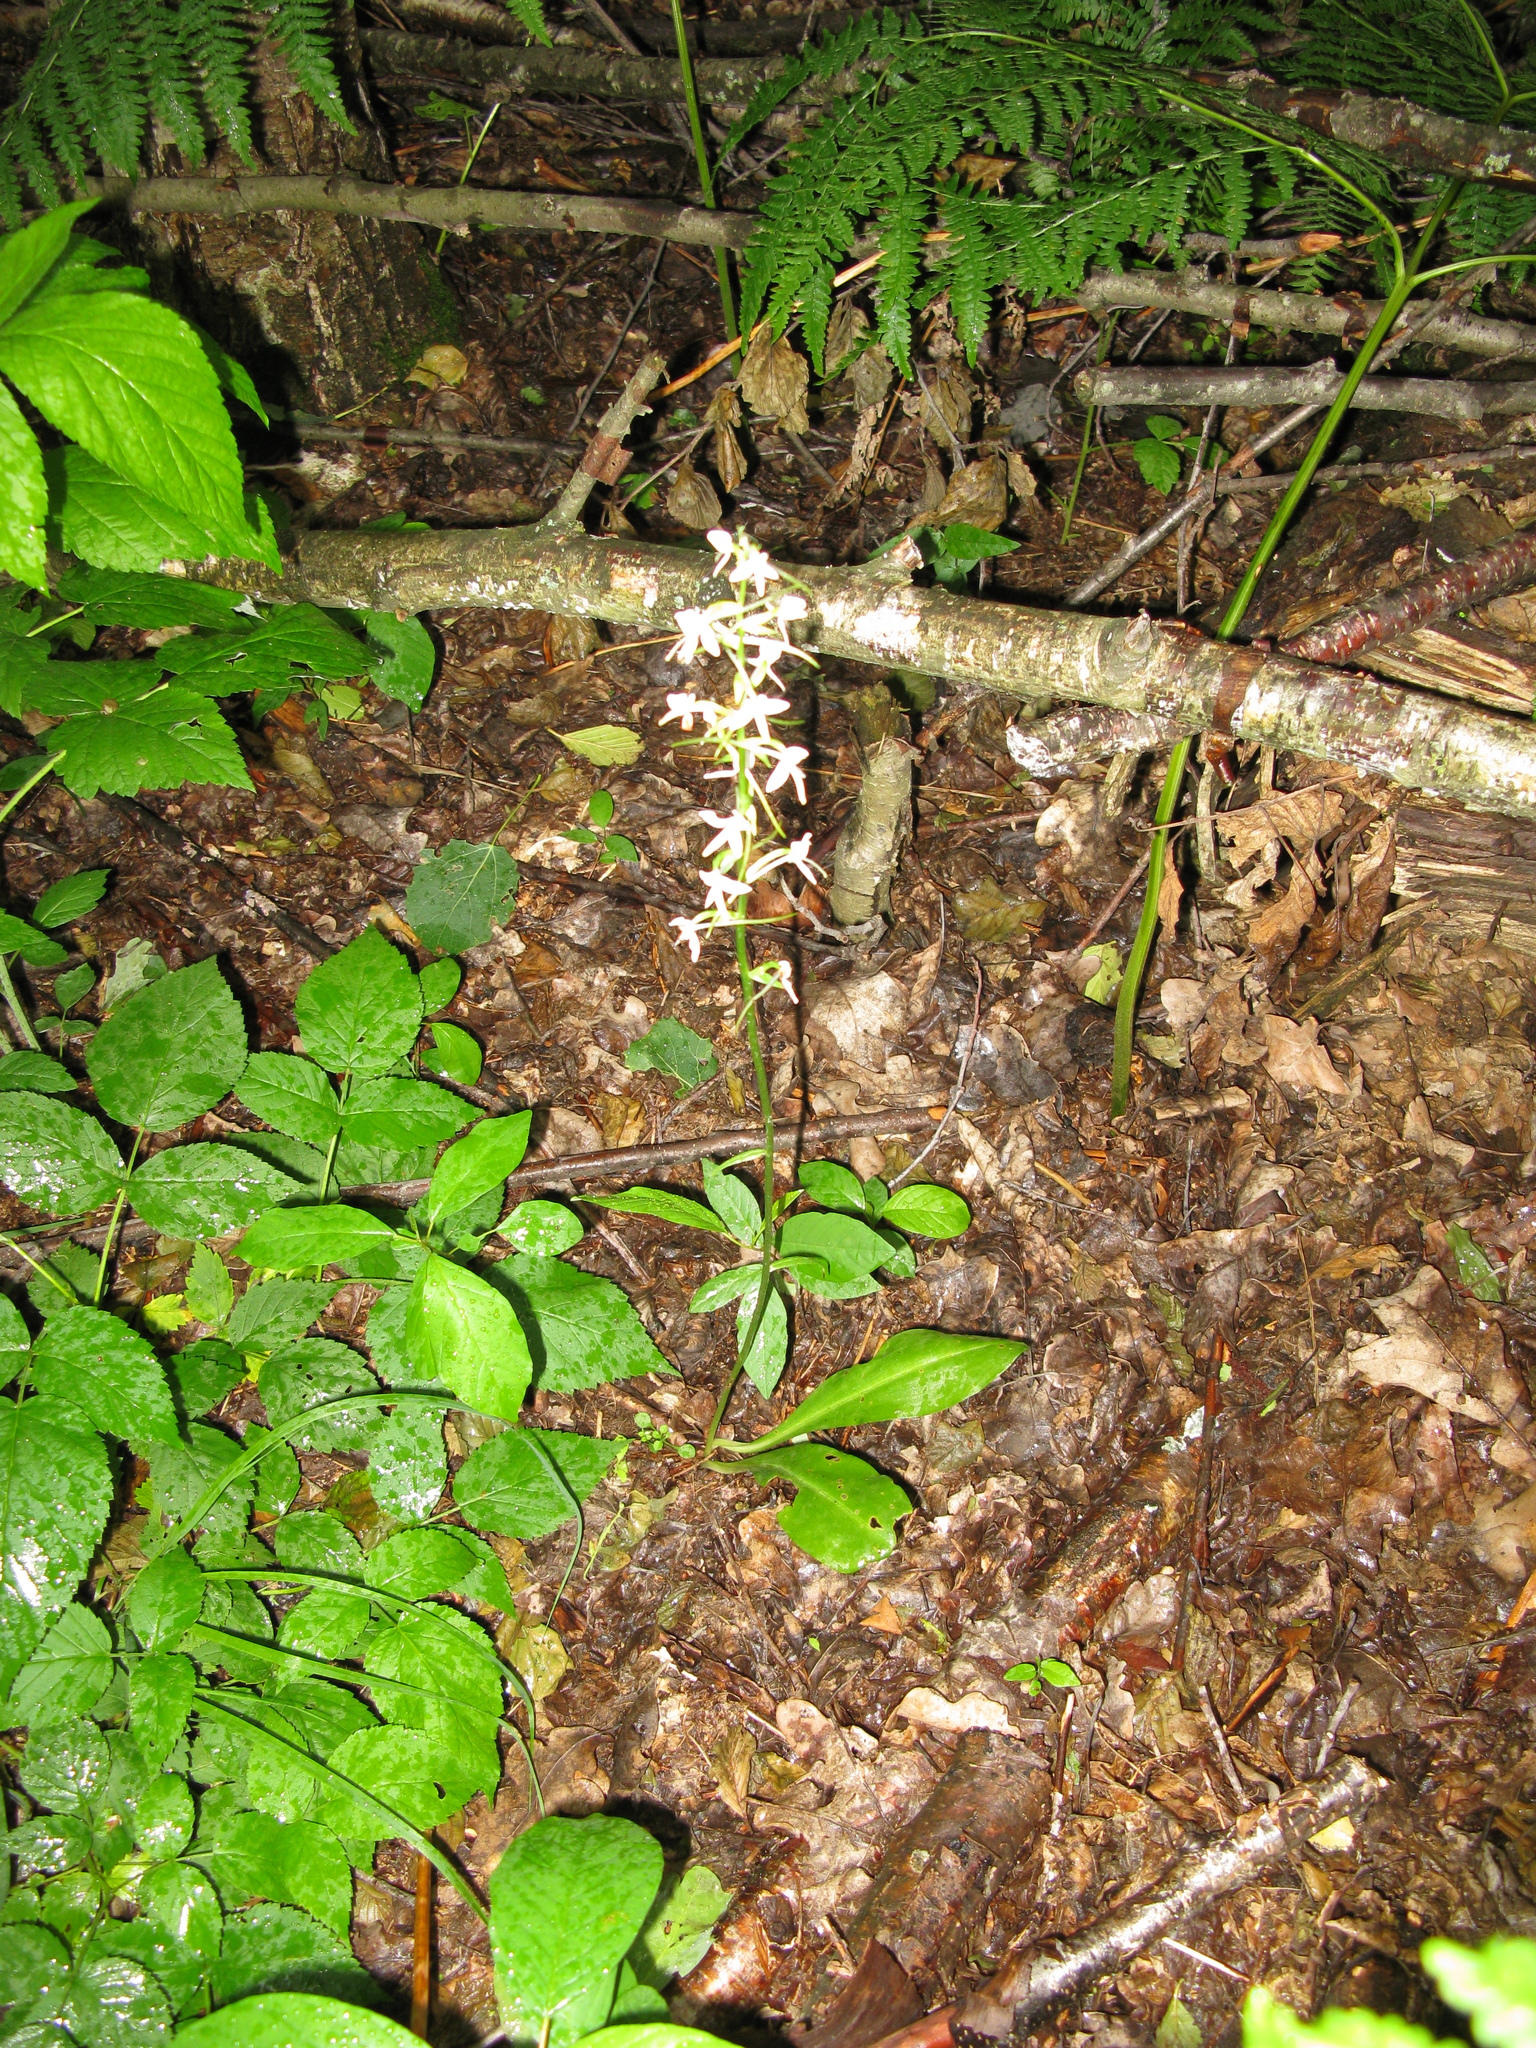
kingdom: Plantae
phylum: Tracheophyta
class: Liliopsida
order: Asparagales
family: Orchidaceae
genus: Platanthera
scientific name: Platanthera bifolia
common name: Lesser butterfly-orchid
